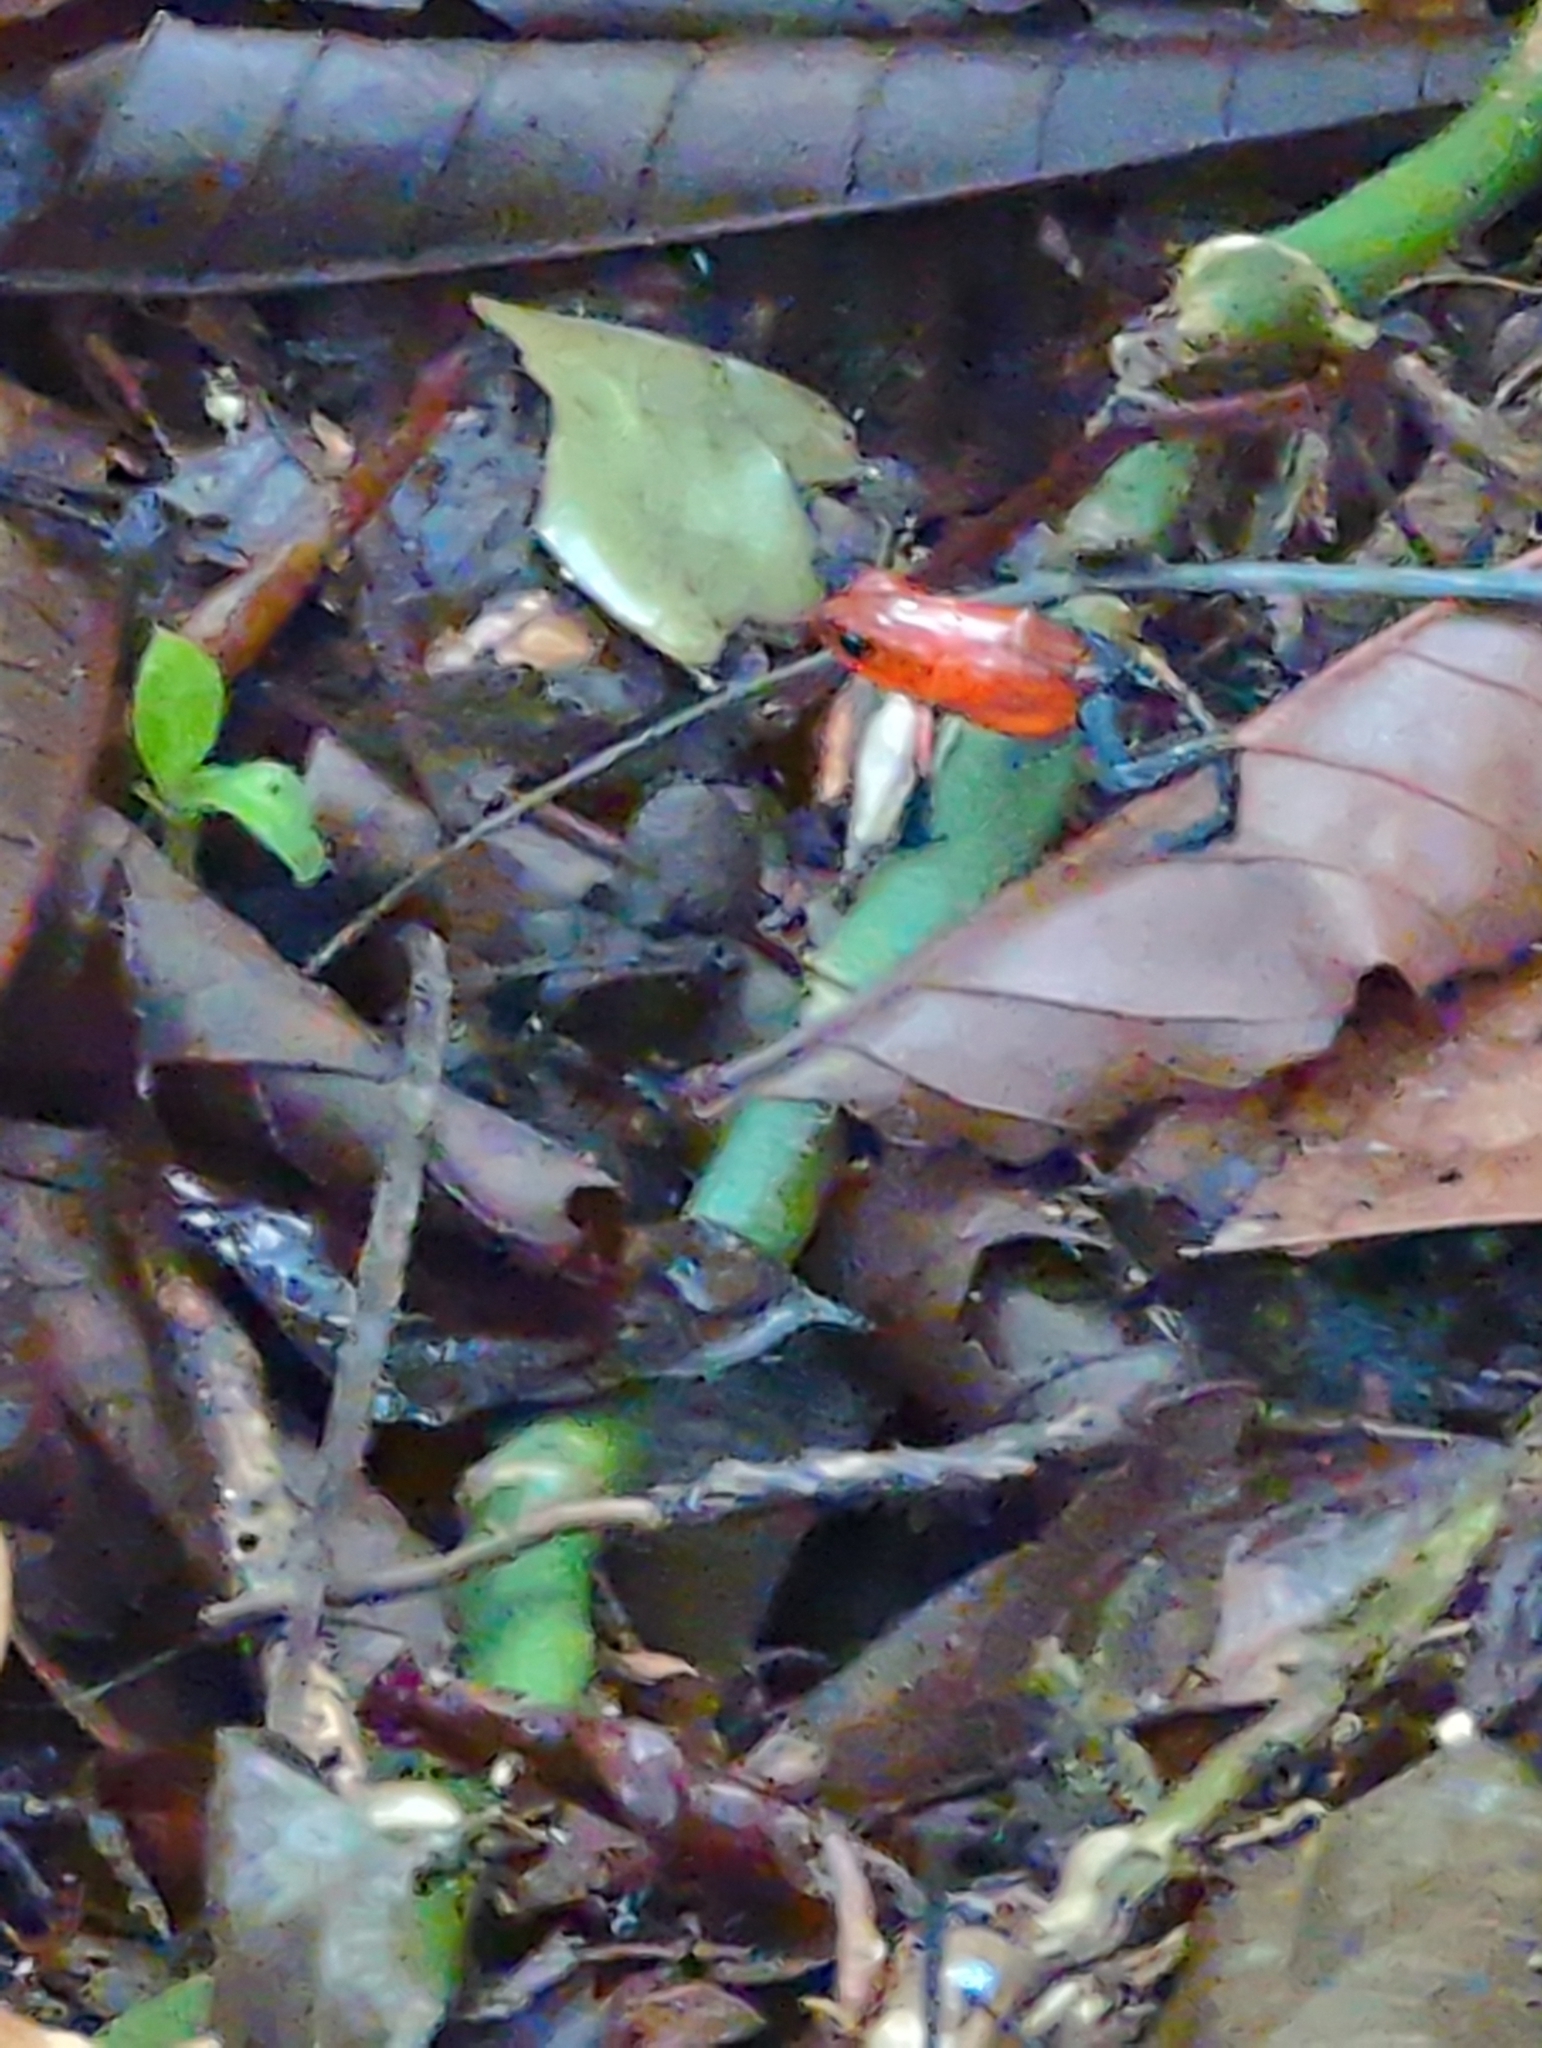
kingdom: Animalia
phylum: Chordata
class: Amphibia
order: Anura
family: Dendrobatidae
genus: Oophaga
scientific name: Oophaga pumilio
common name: Flaming poison frog
